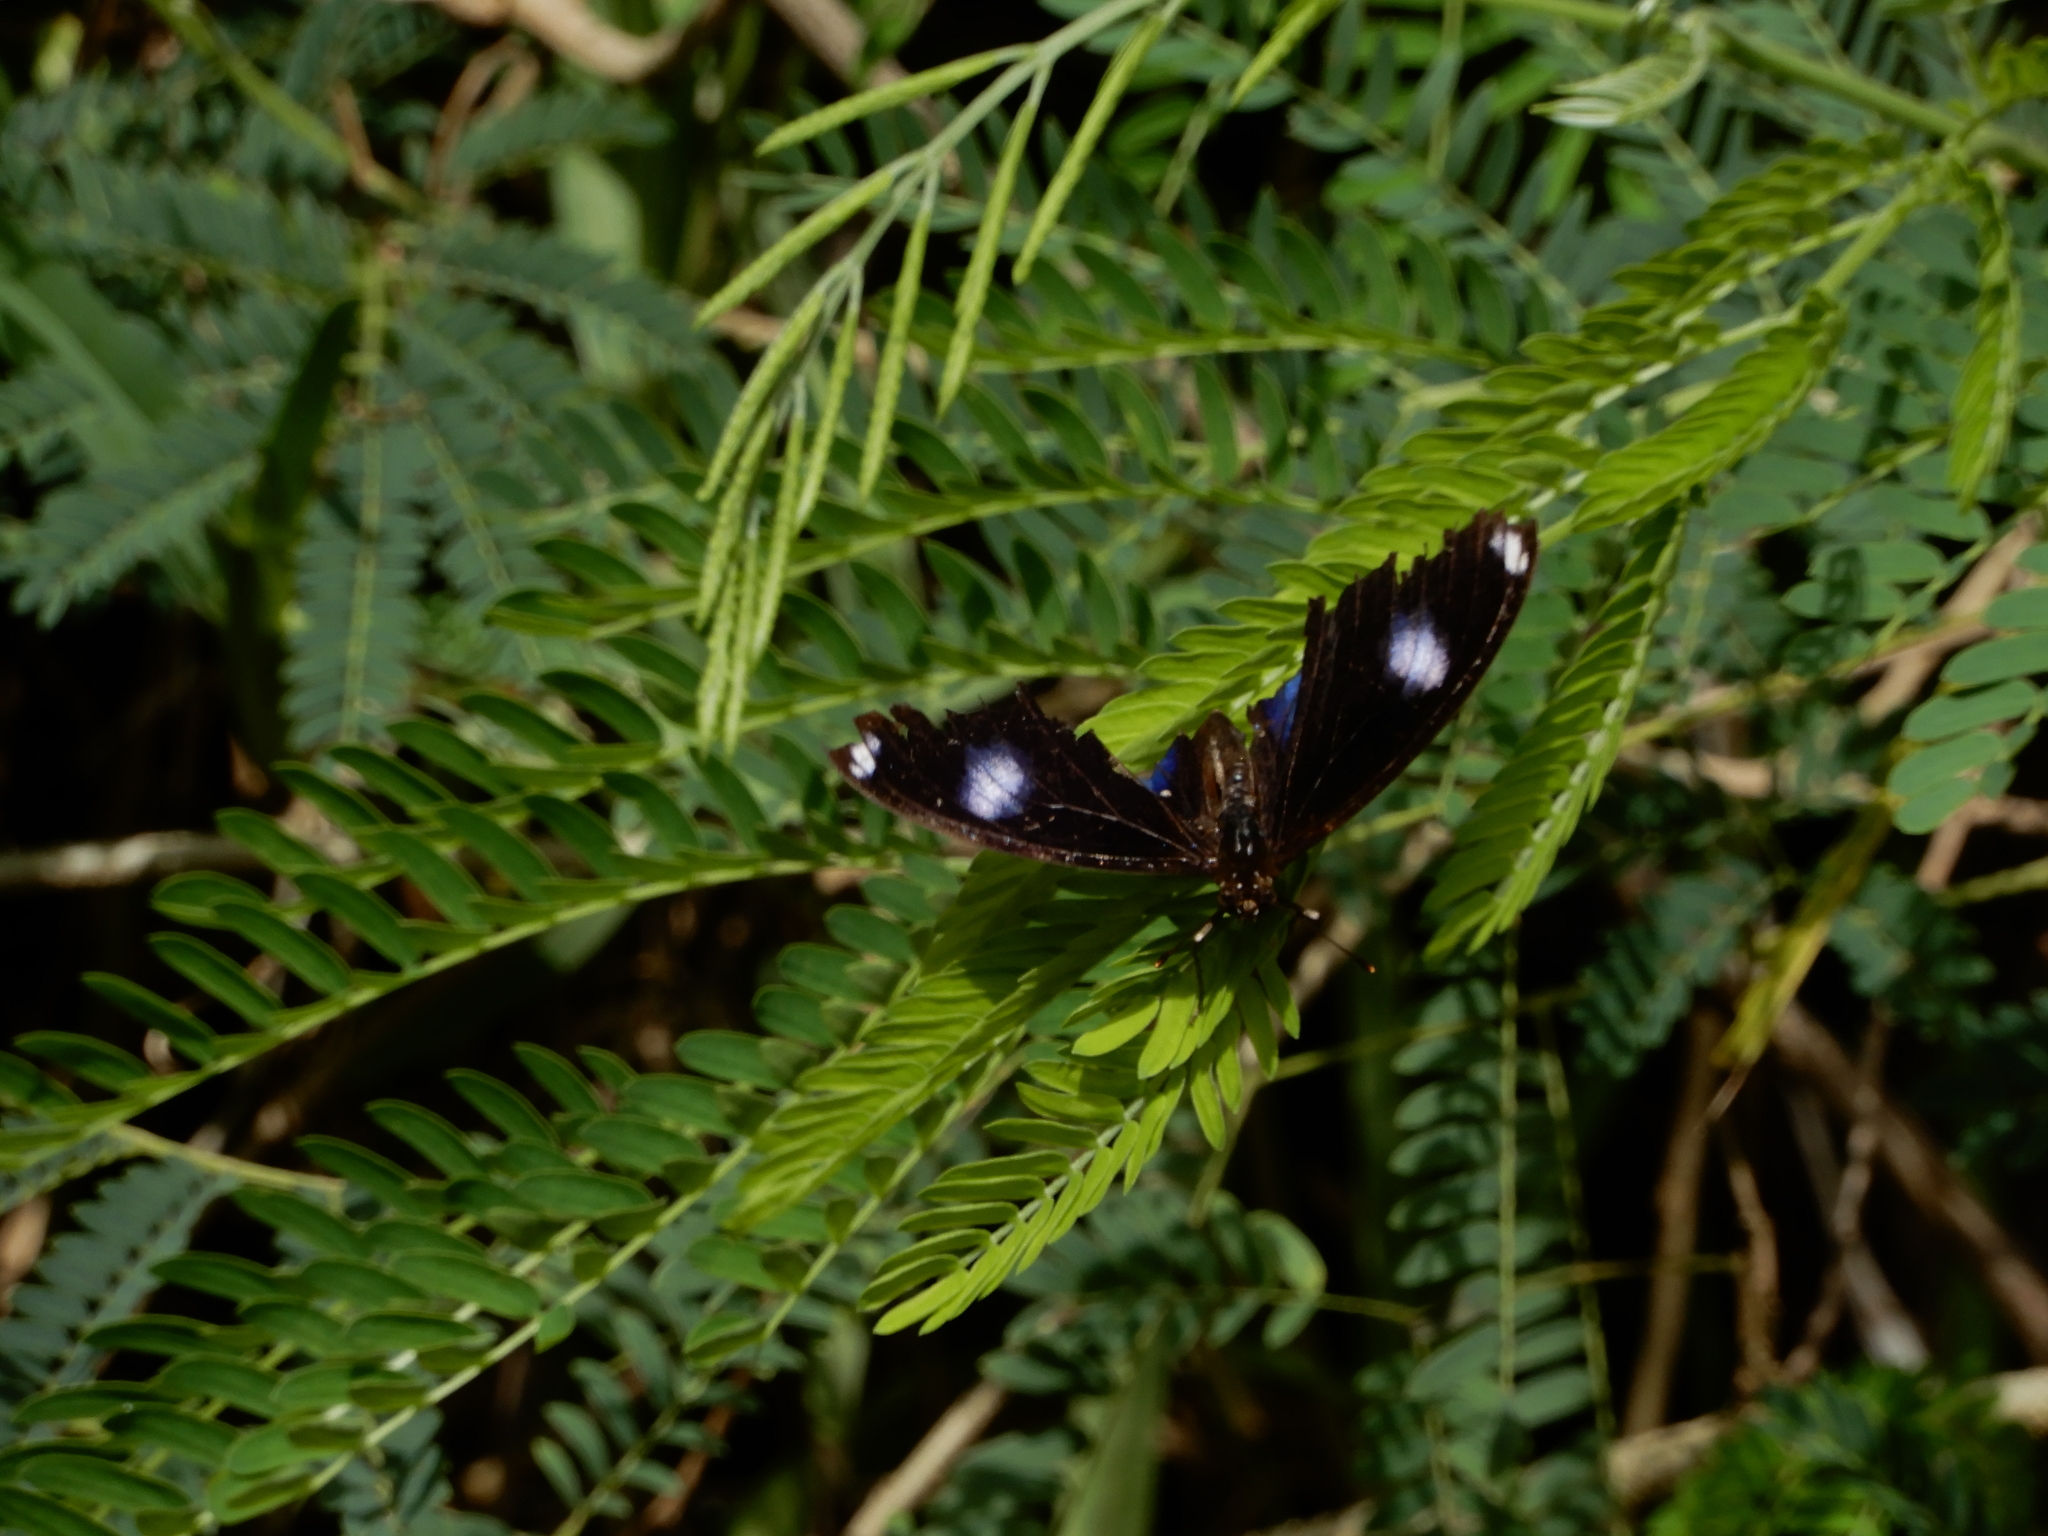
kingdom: Animalia
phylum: Arthropoda
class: Insecta
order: Lepidoptera
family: Nymphalidae
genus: Hypolimnas
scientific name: Hypolimnas bolina
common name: Great eggfly
